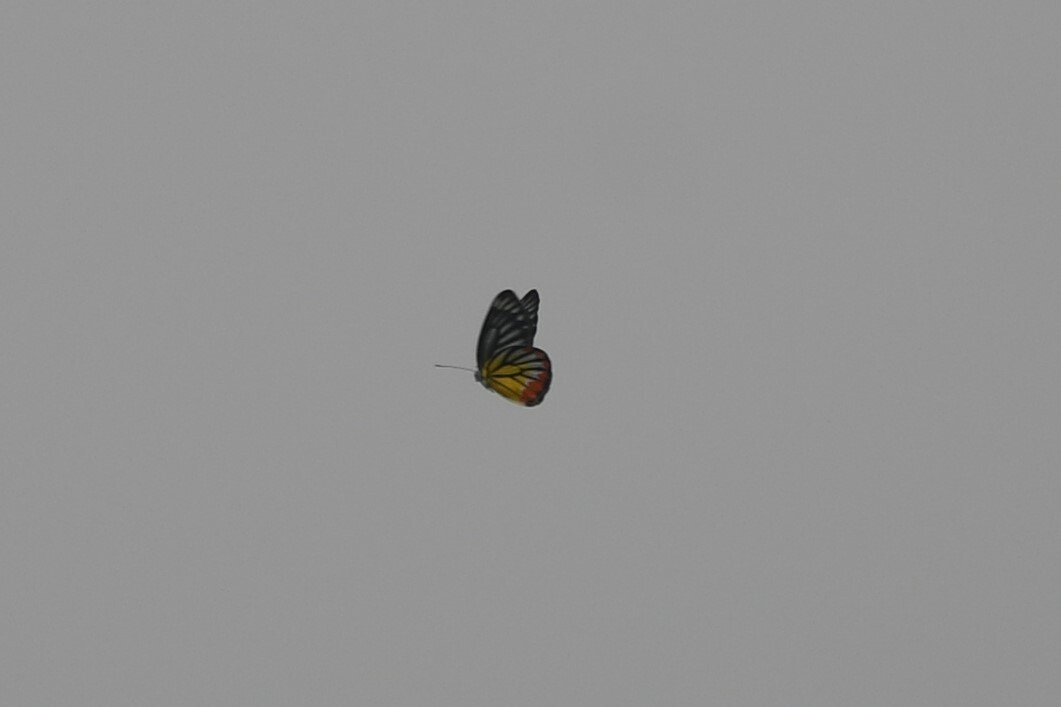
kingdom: Animalia
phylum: Arthropoda
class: Insecta
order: Lepidoptera
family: Pieridae
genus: Delias
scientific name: Delias hyparete
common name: Painted jezebel
